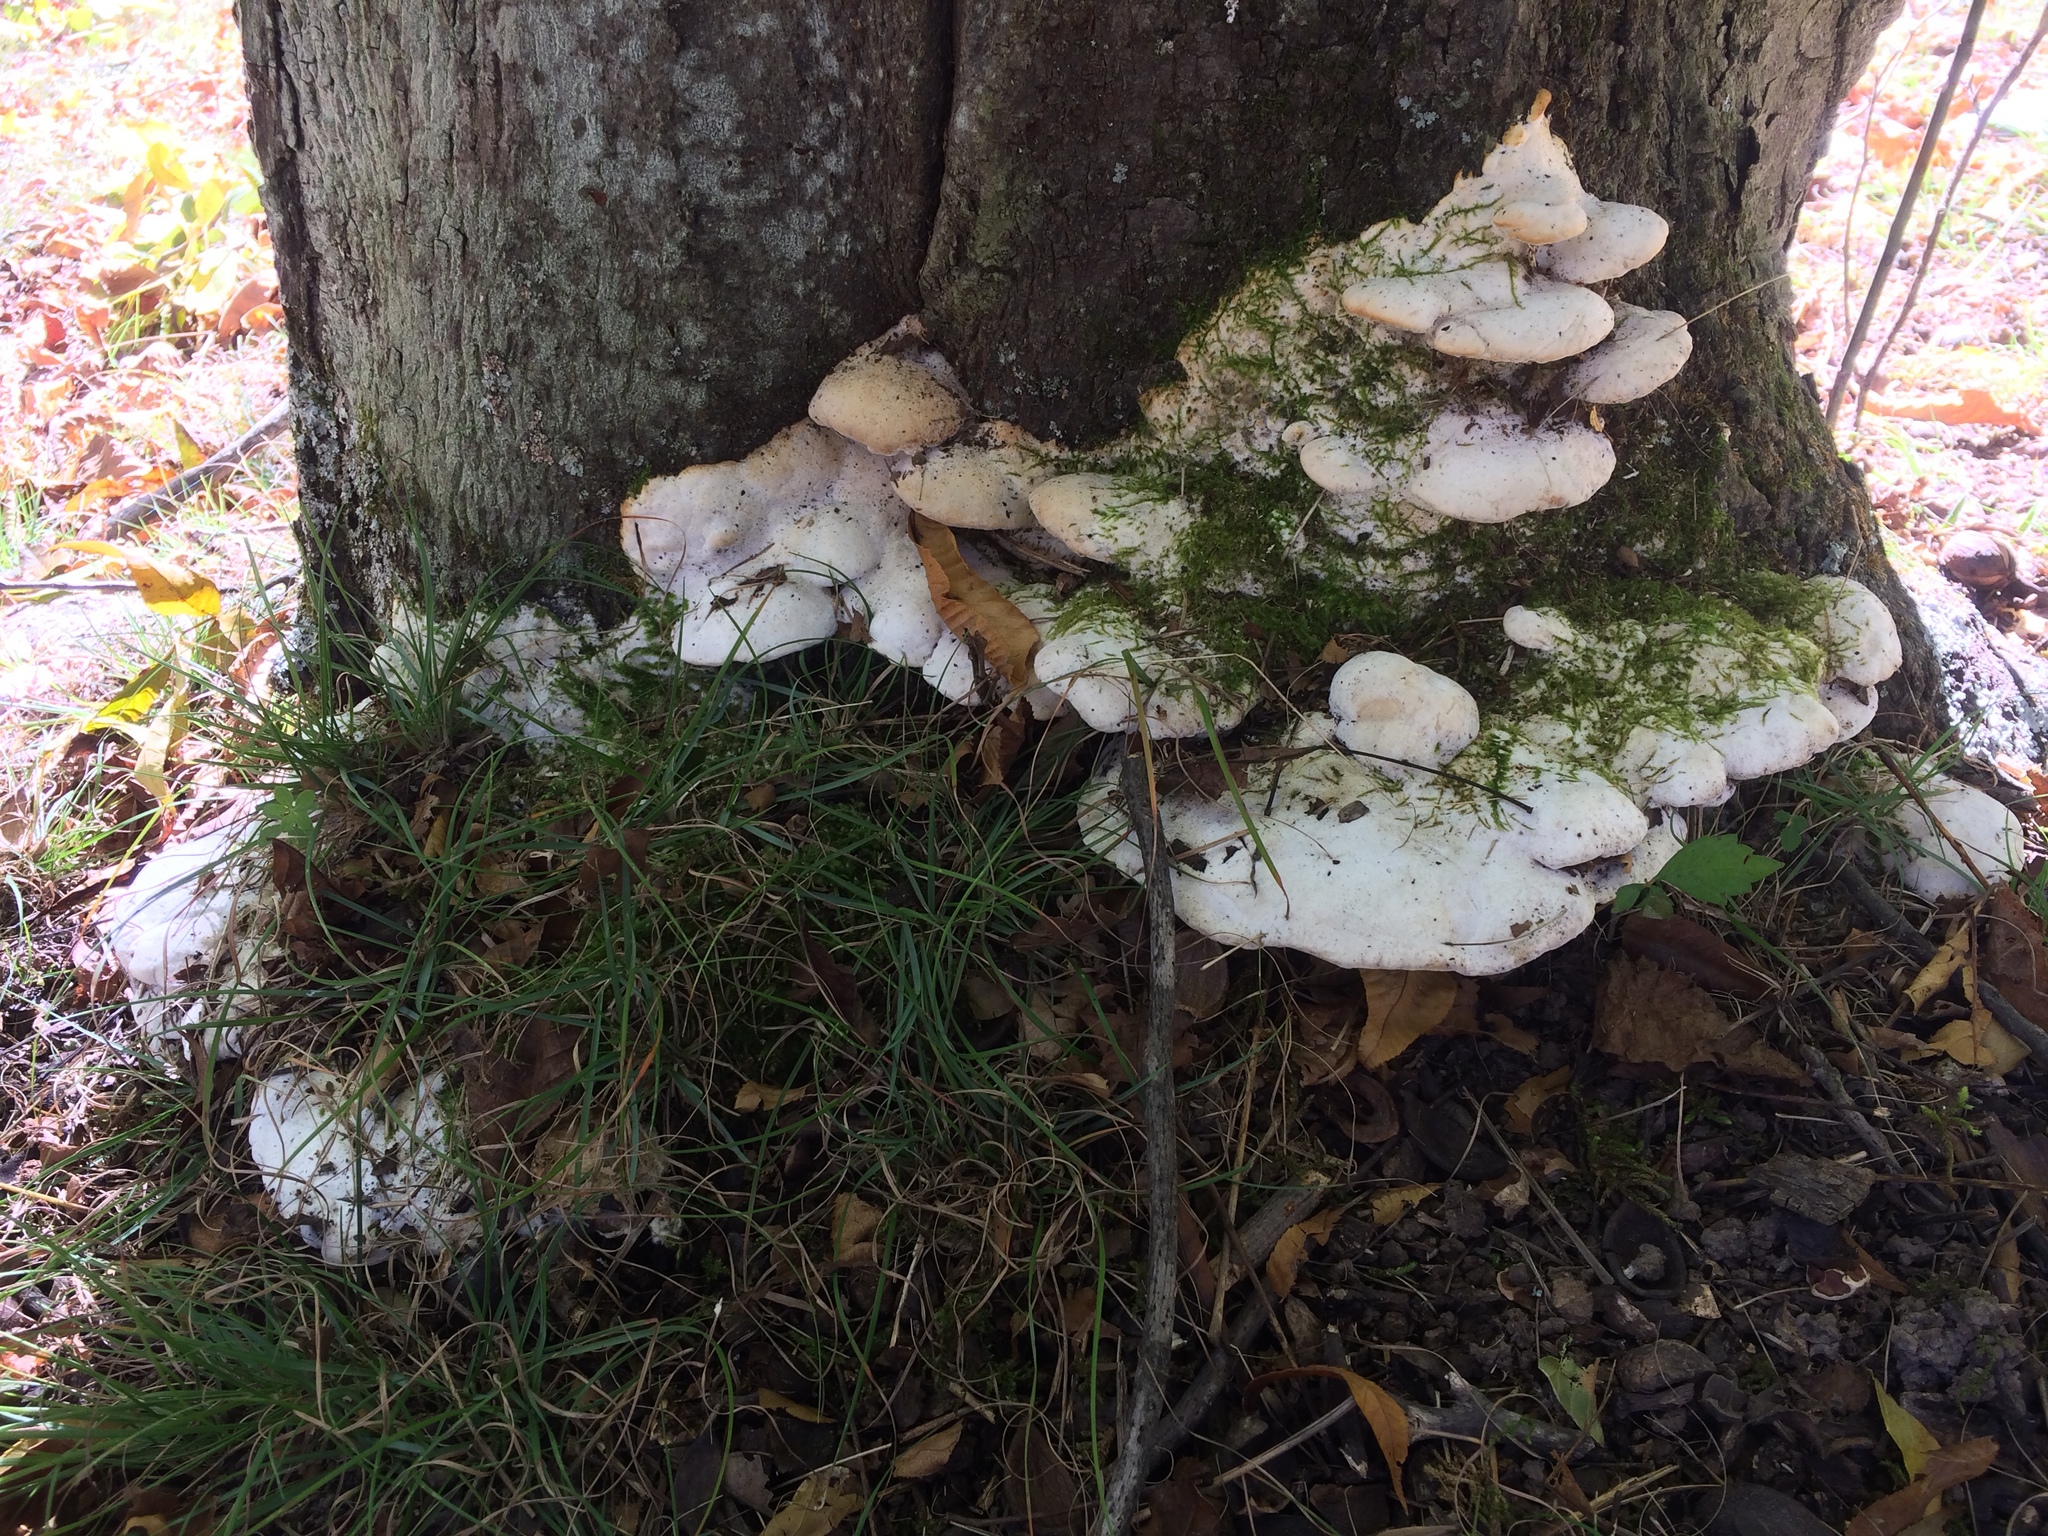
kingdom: Fungi
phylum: Basidiomycota
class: Agaricomycetes
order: Hymenochaetales
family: Oxyporaceae
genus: Oxyporus
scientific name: Oxyporus populinus
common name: Poplar bracket
